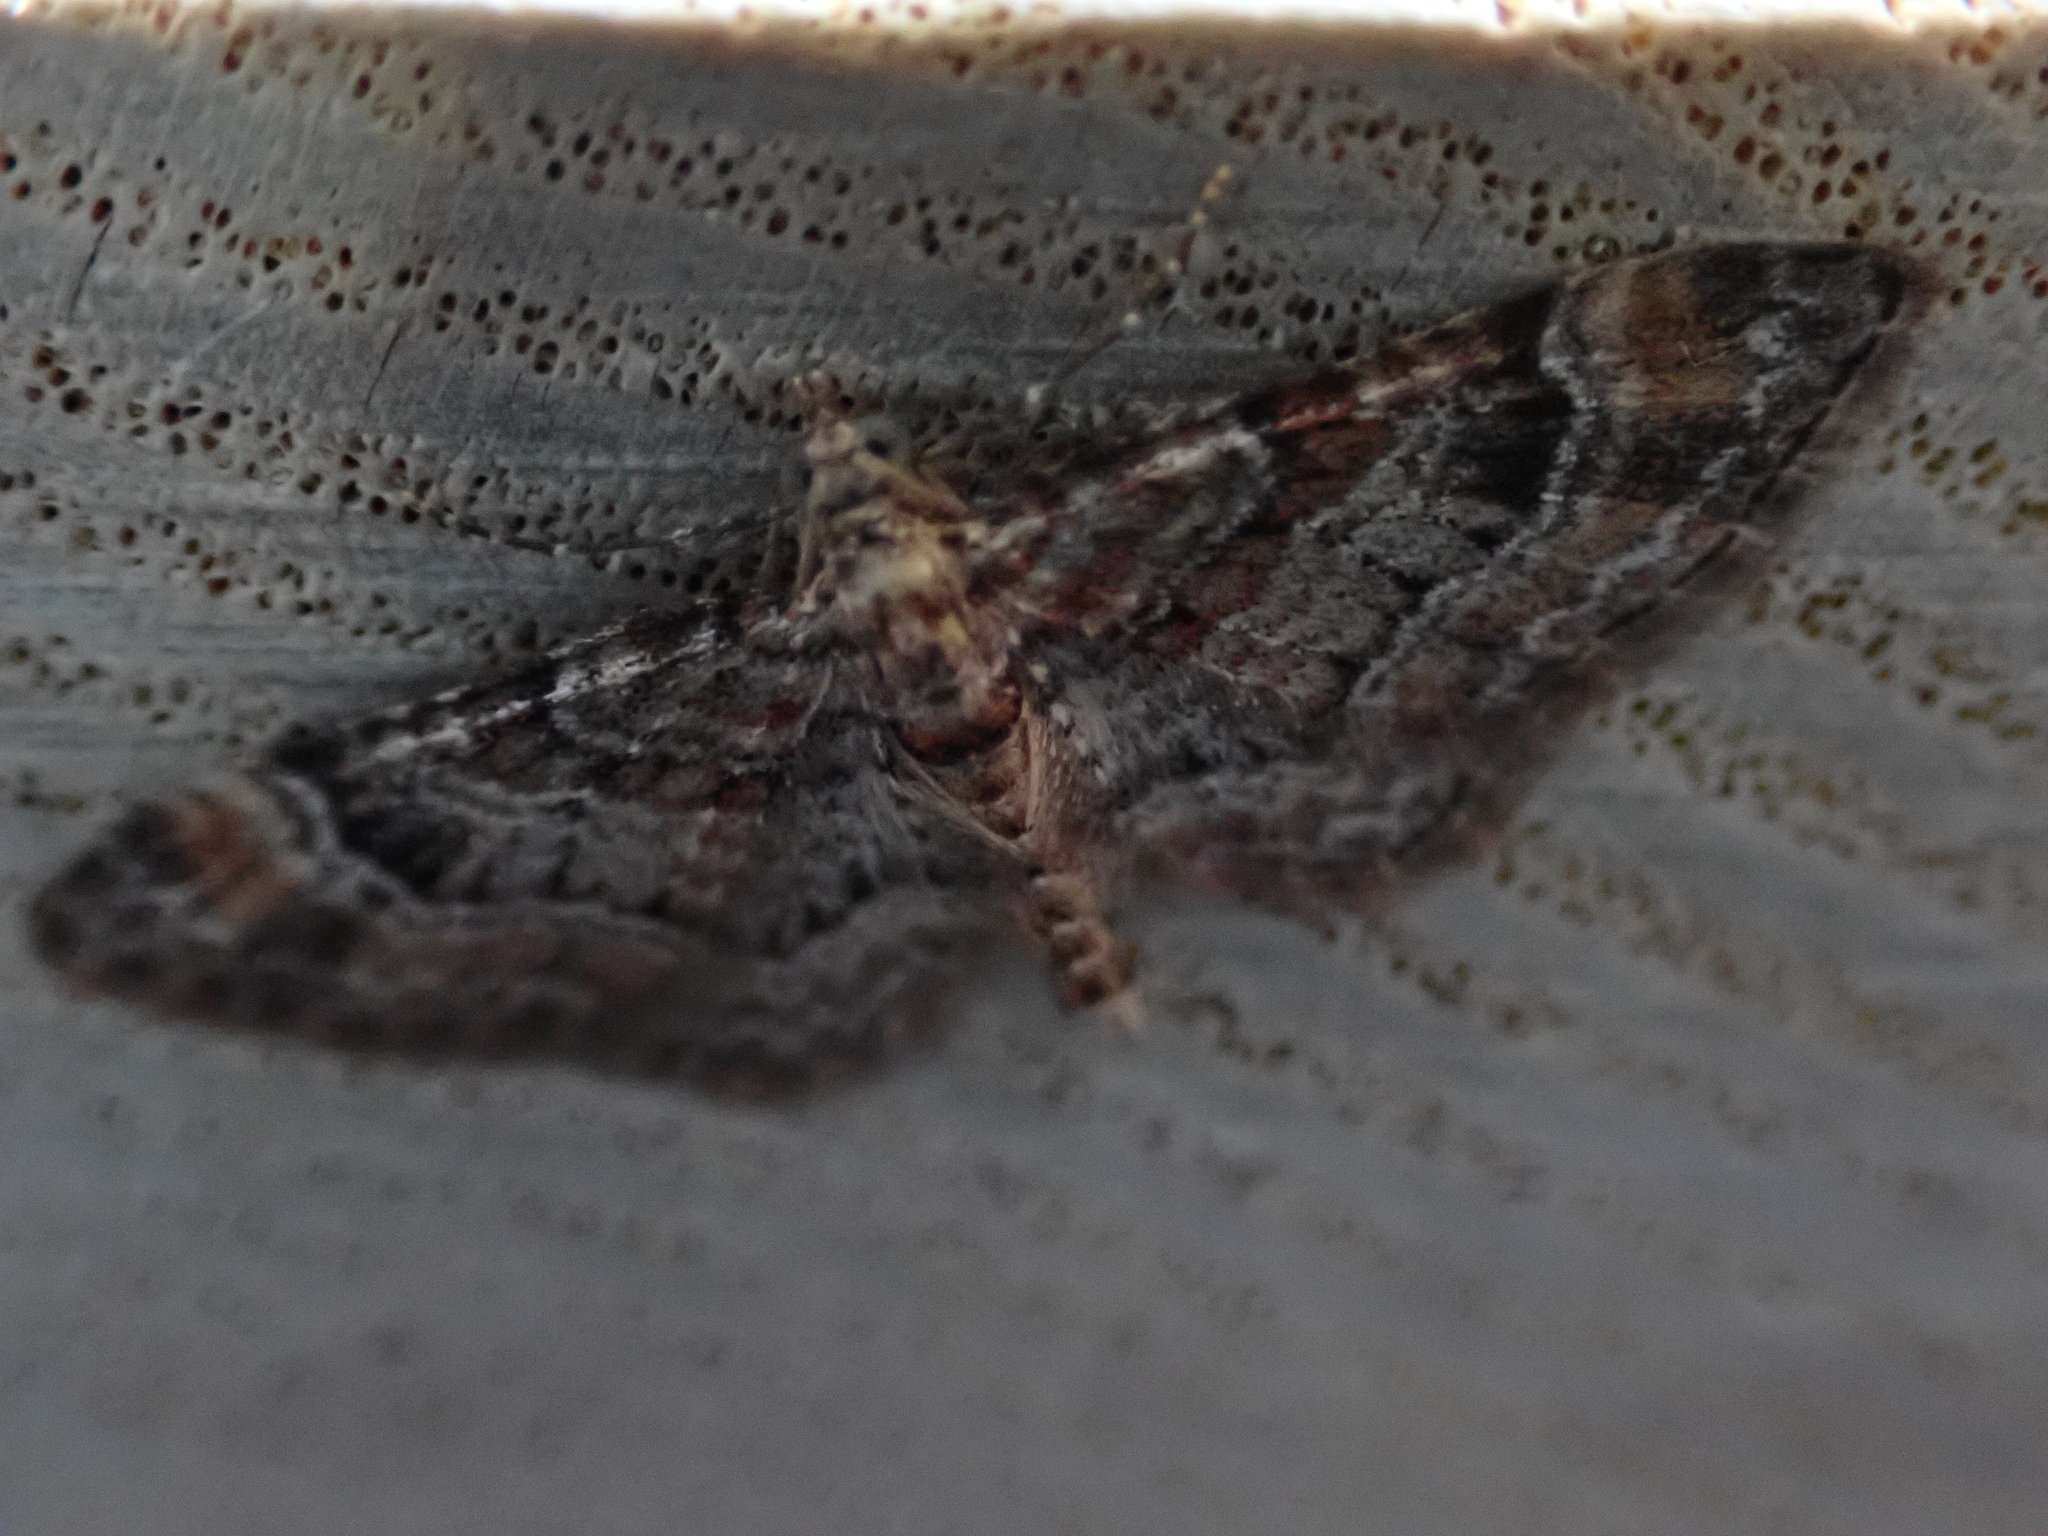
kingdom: Animalia
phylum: Arthropoda
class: Insecta
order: Lepidoptera
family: Geometridae
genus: Gymnoscelis
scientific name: Gymnoscelis rufifasciata
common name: Double-striped pug
